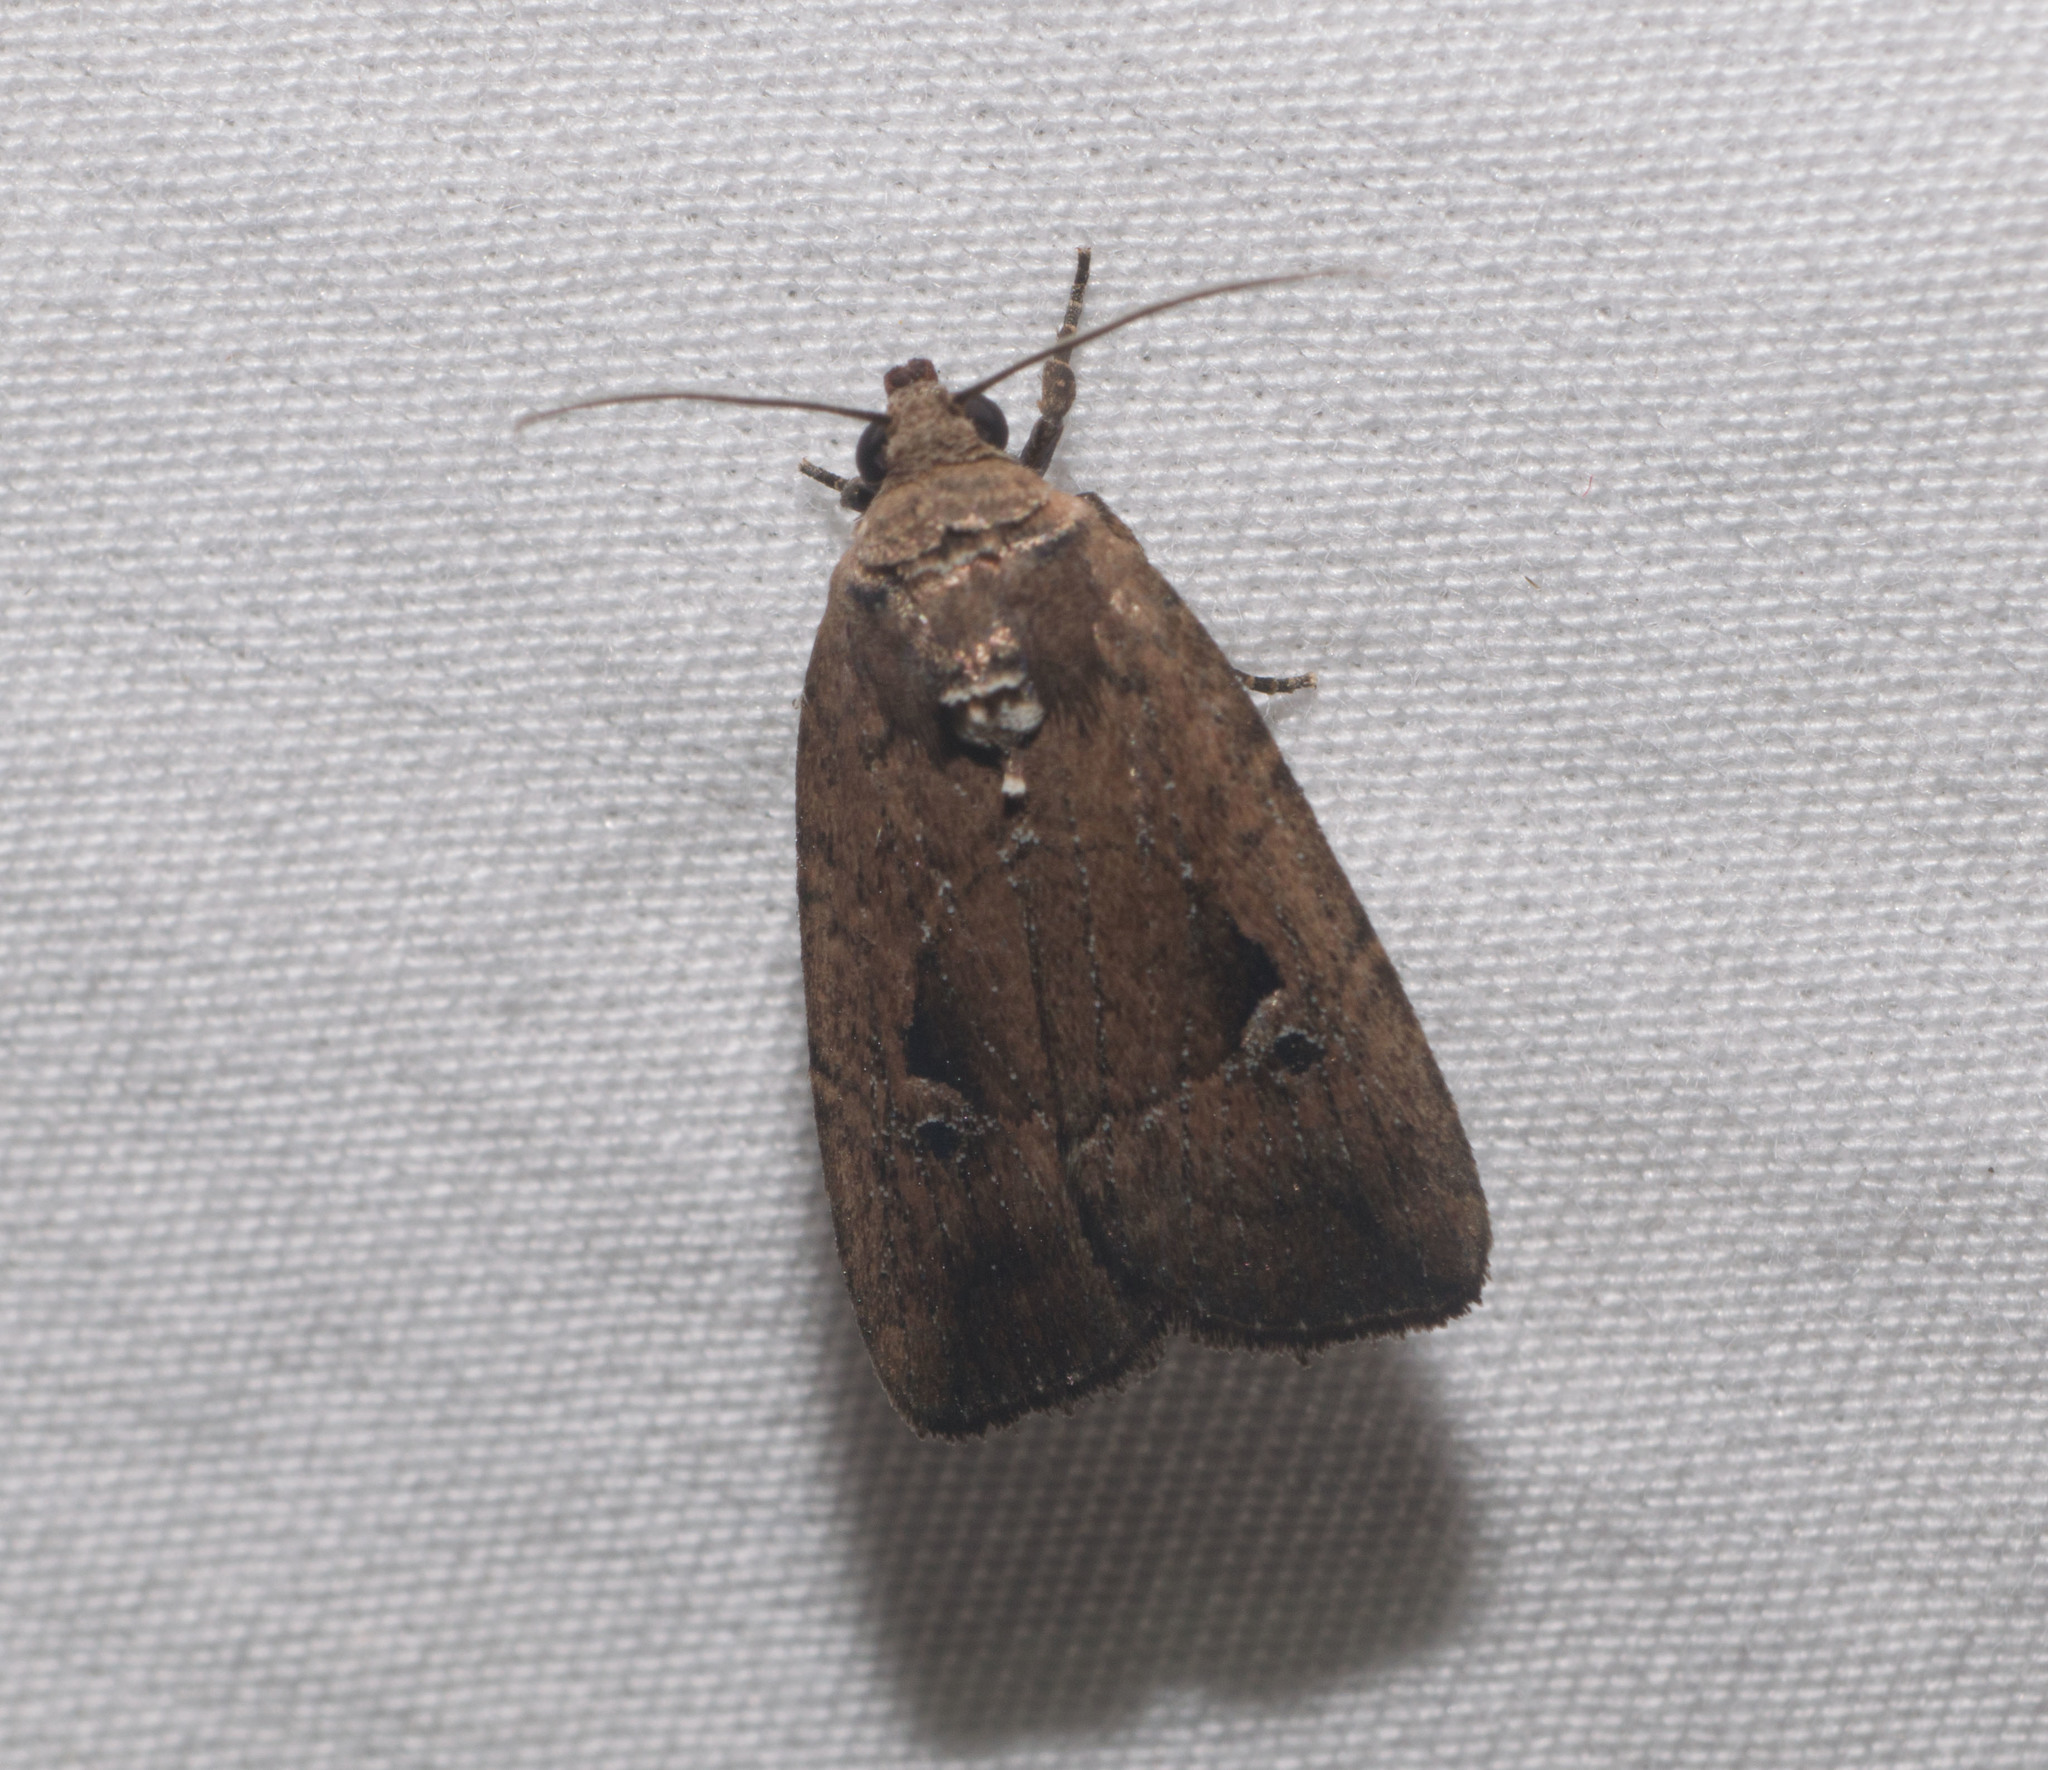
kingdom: Animalia
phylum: Arthropoda
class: Insecta
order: Lepidoptera
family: Noctuidae
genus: Elaphria
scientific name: Elaphria nucicolora
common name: Sugarcane midget moth
